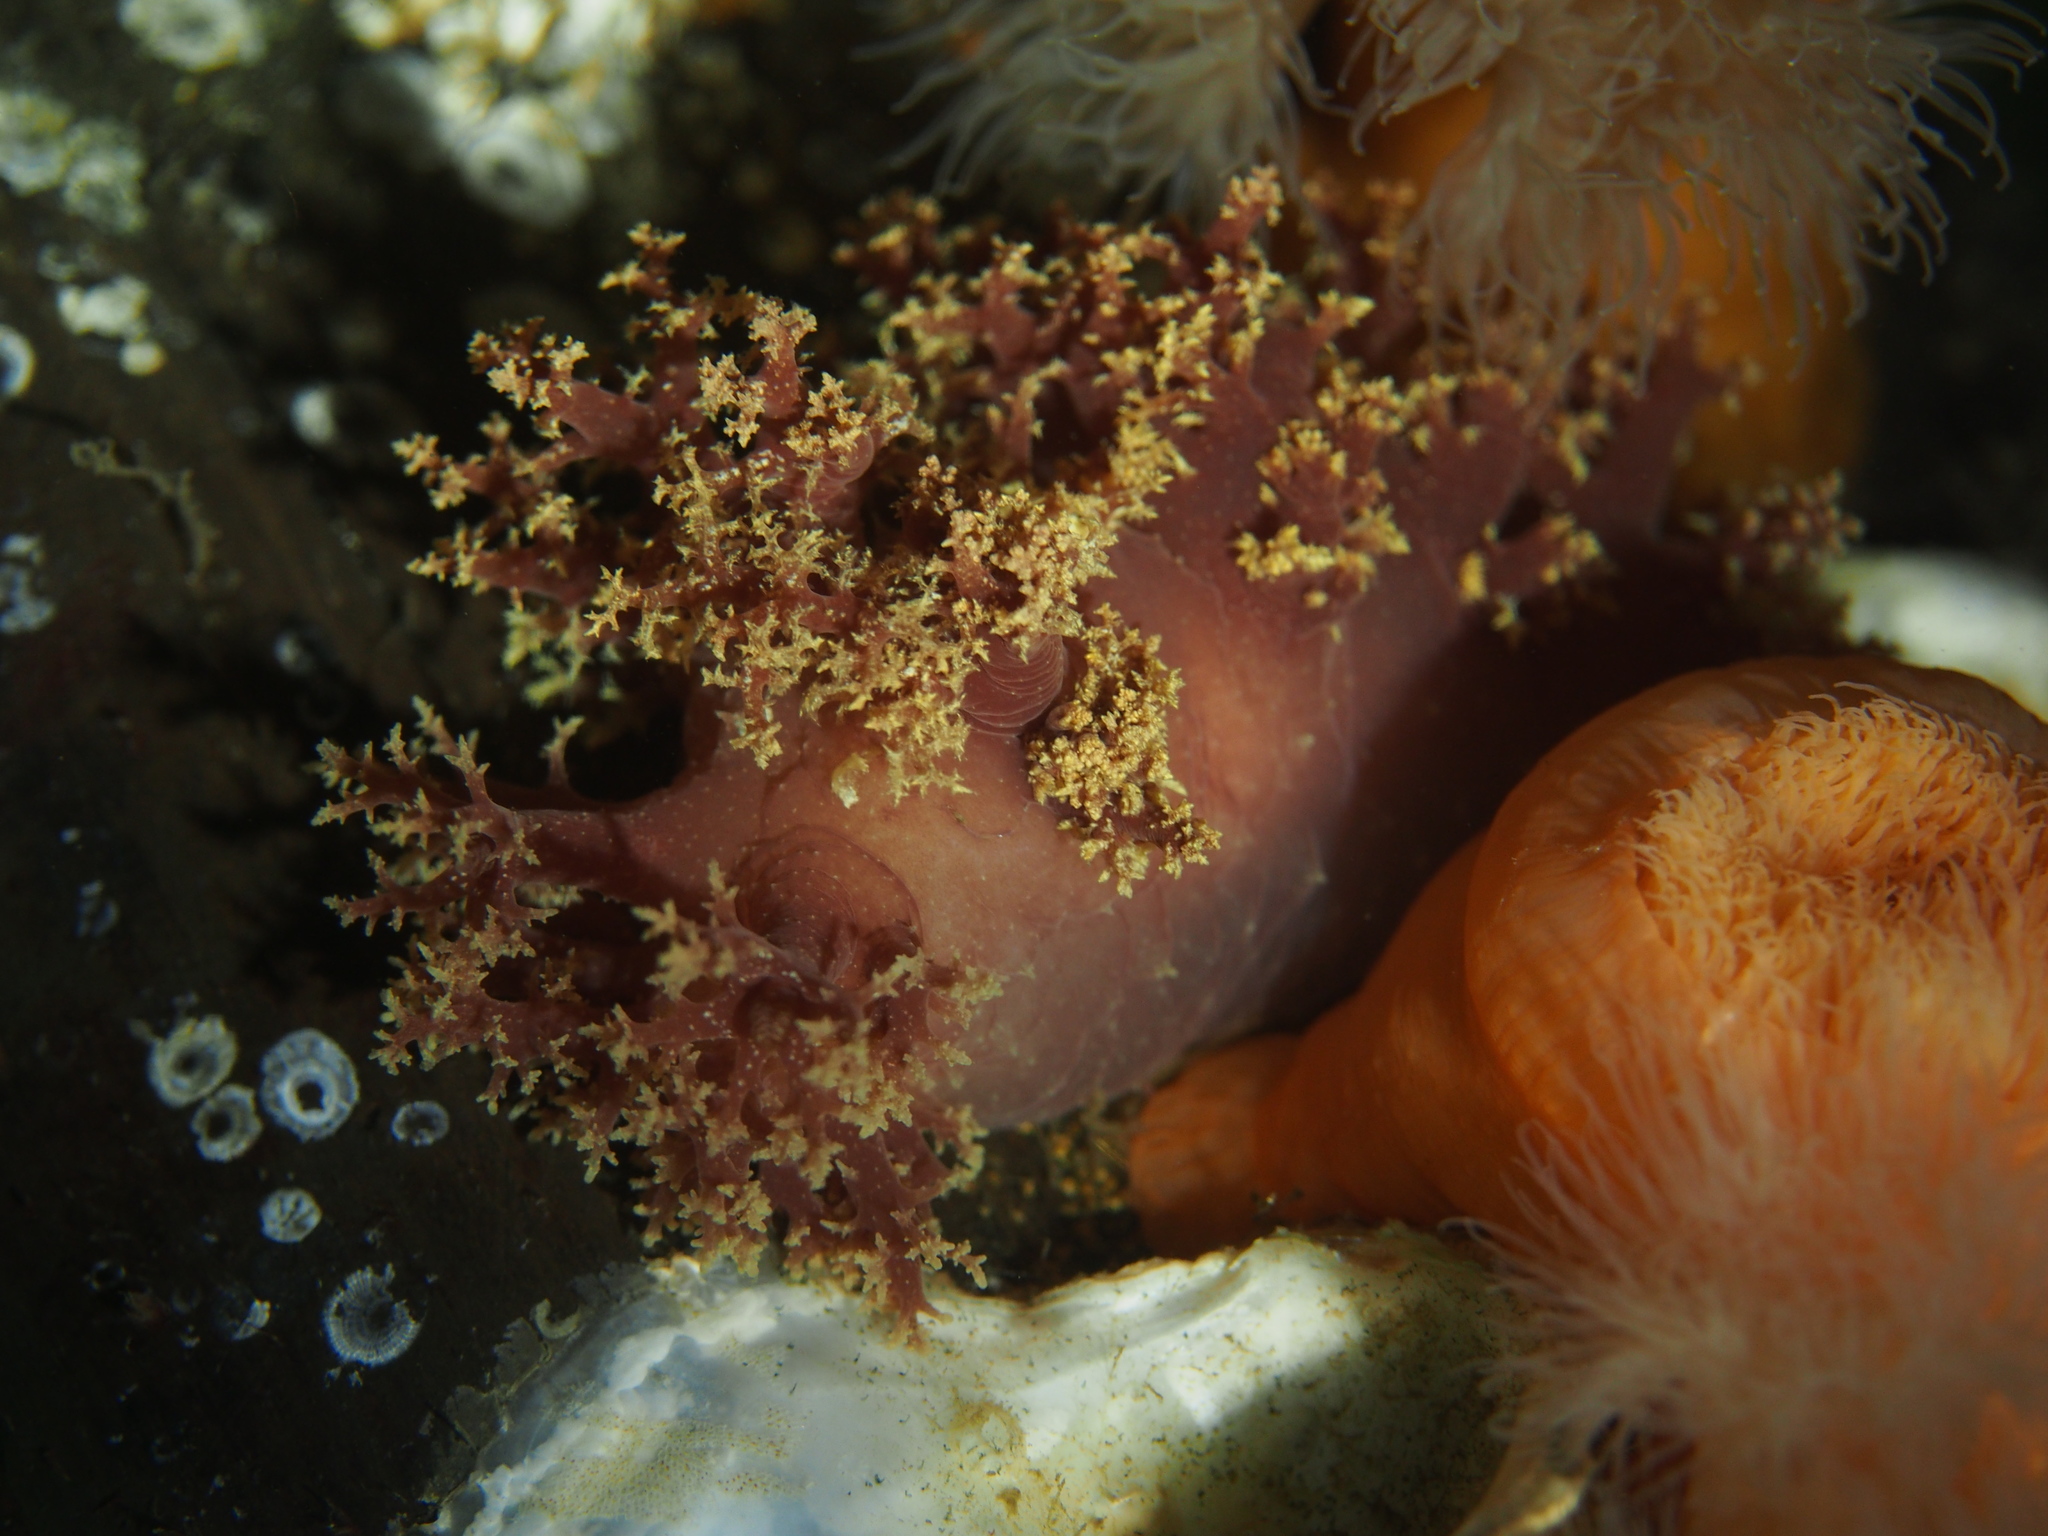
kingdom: Animalia
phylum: Mollusca
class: Gastropoda
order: Nudibranchia
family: Dendronotidae
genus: Dendronotus
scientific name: Dendronotus lacteus
